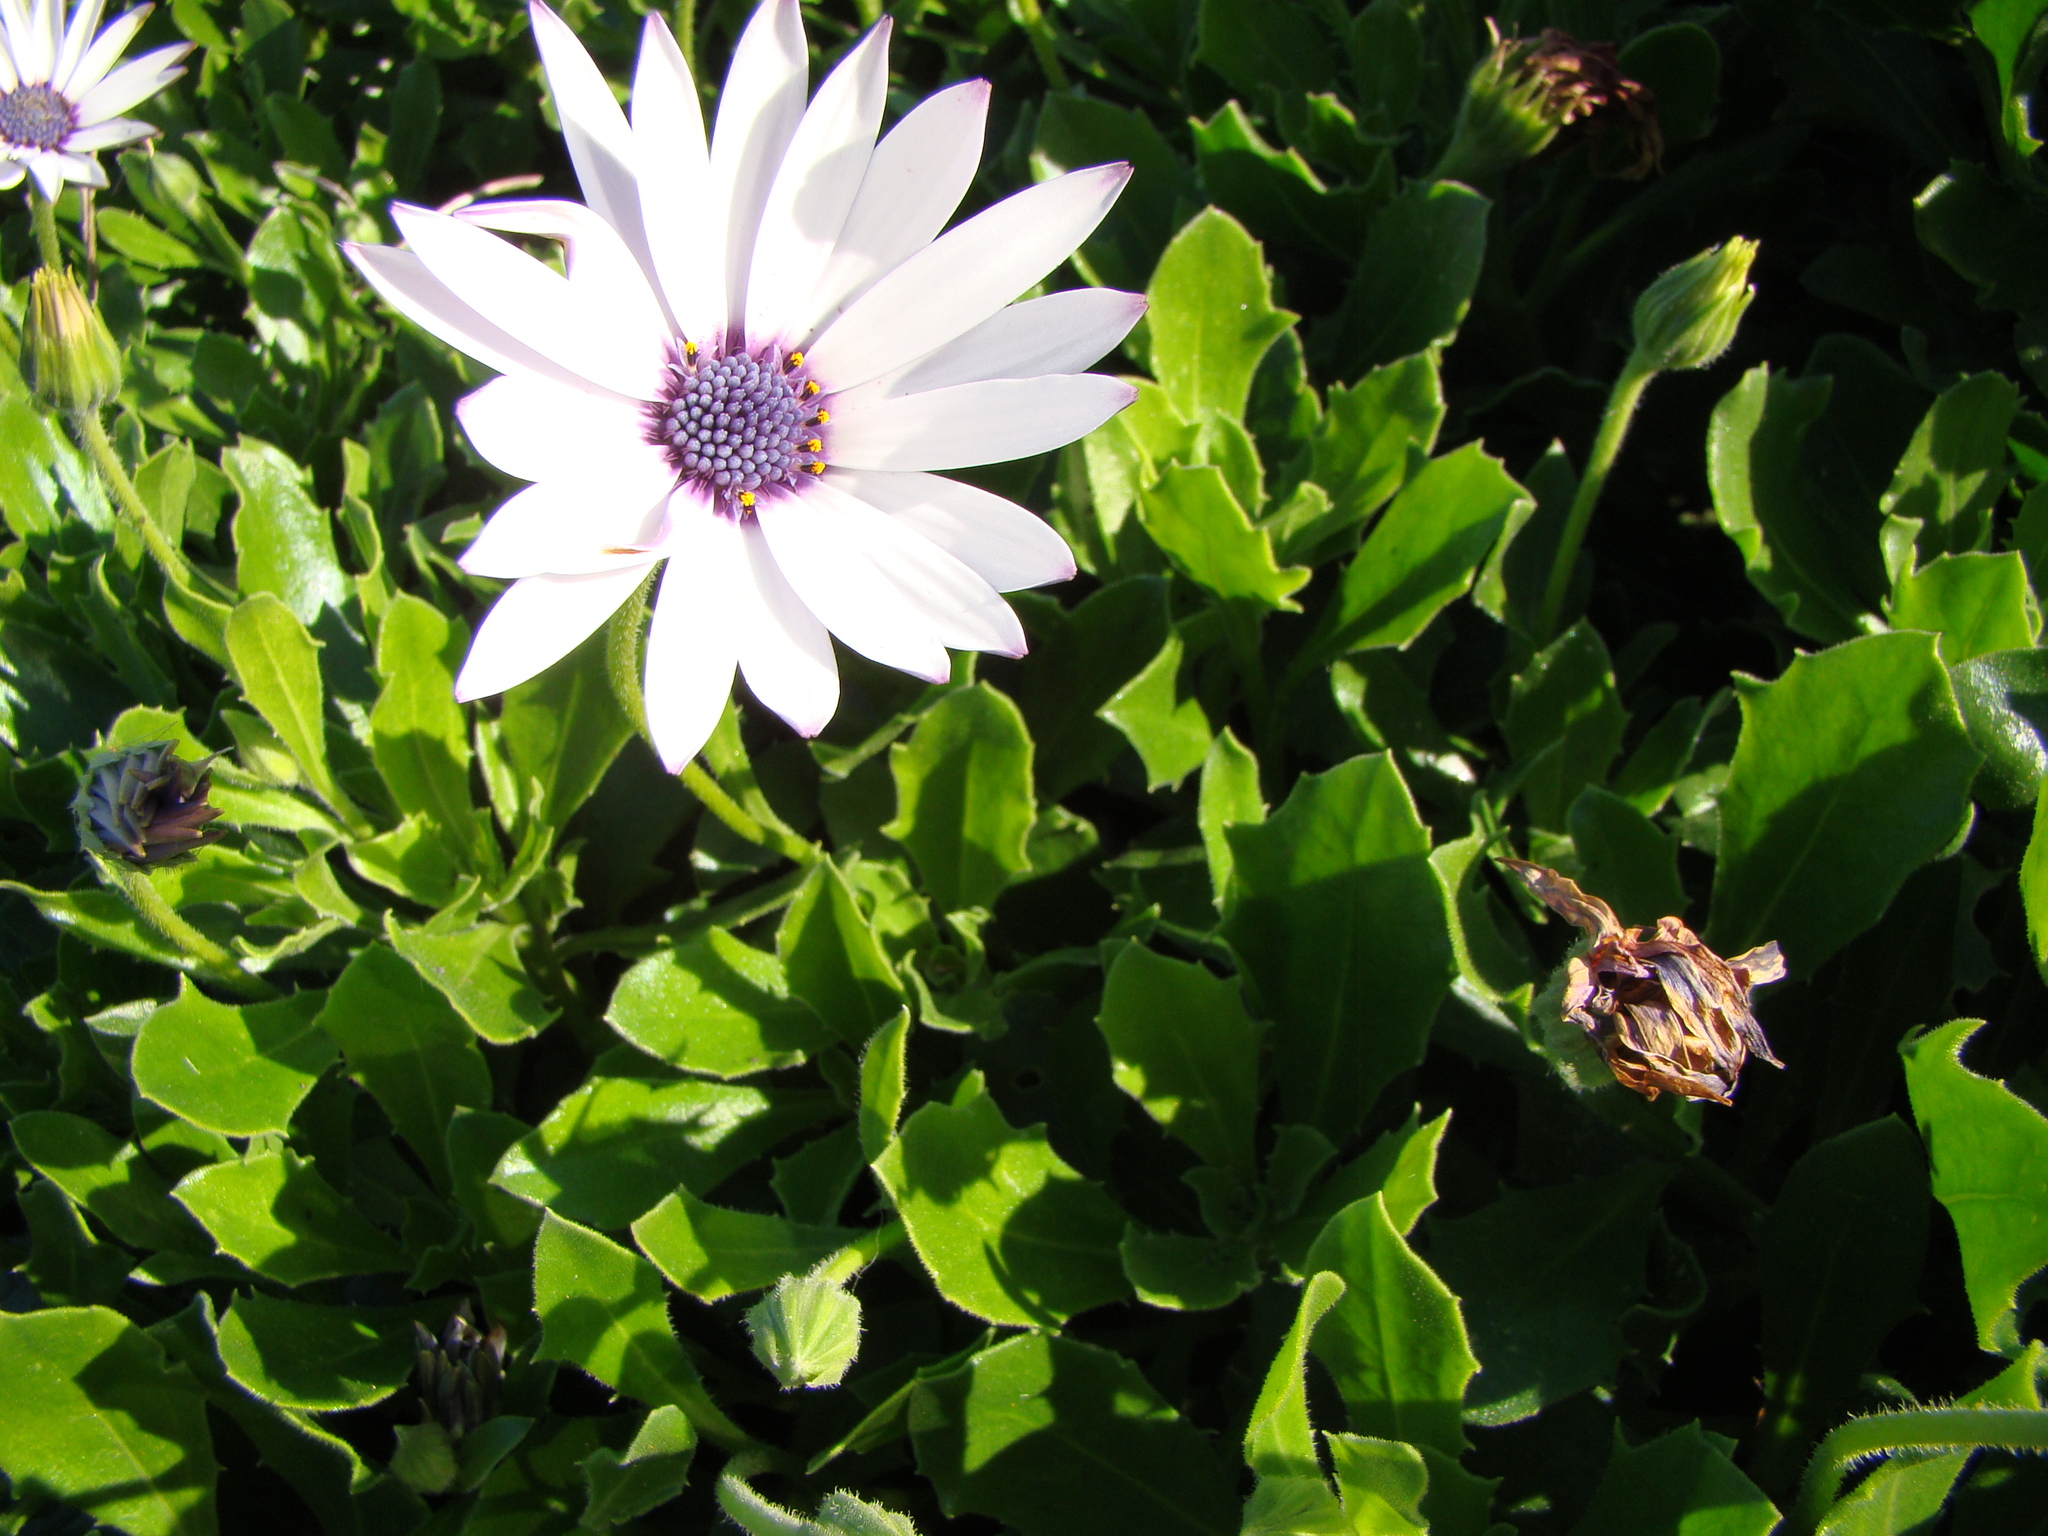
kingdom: Plantae
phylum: Tracheophyta
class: Magnoliopsida
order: Asterales
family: Asteraceae
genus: Dimorphotheca
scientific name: Dimorphotheca fruticosa
